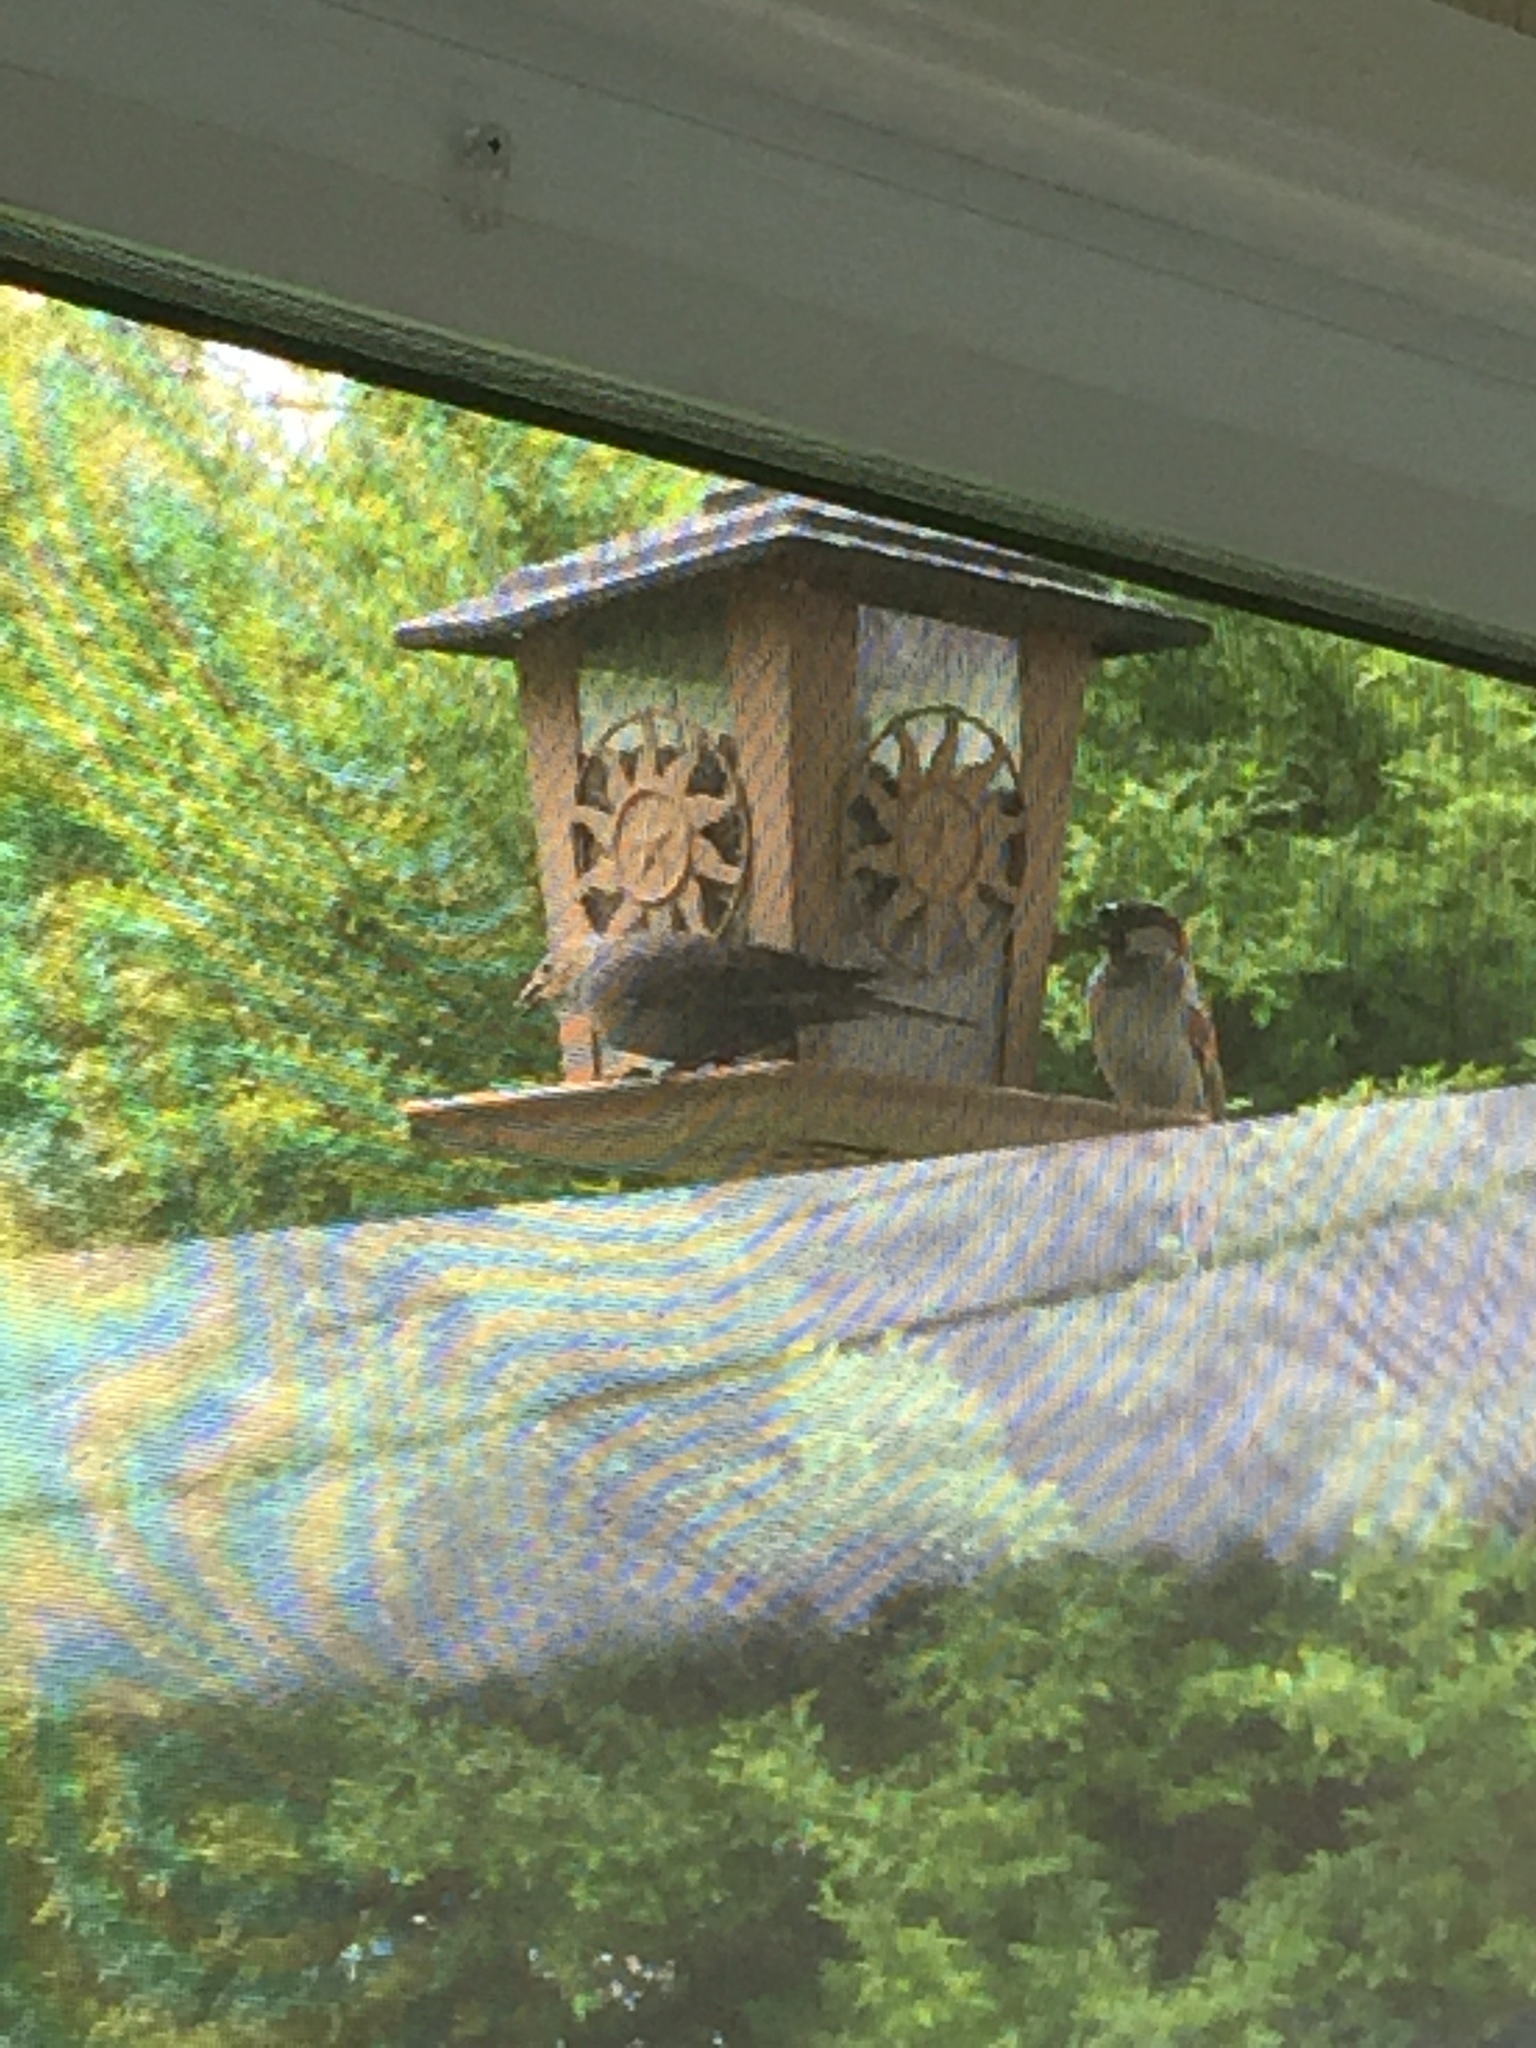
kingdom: Animalia
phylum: Chordata
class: Aves
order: Passeriformes
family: Icteridae
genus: Molothrus
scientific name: Molothrus ater
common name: Brown-headed cowbird
